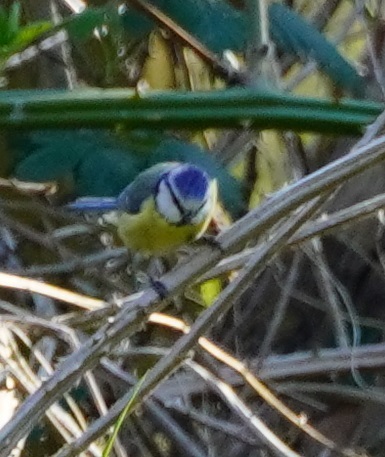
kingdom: Animalia
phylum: Chordata
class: Aves
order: Passeriformes
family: Paridae
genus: Cyanistes
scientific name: Cyanistes caeruleus
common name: Eurasian blue tit
